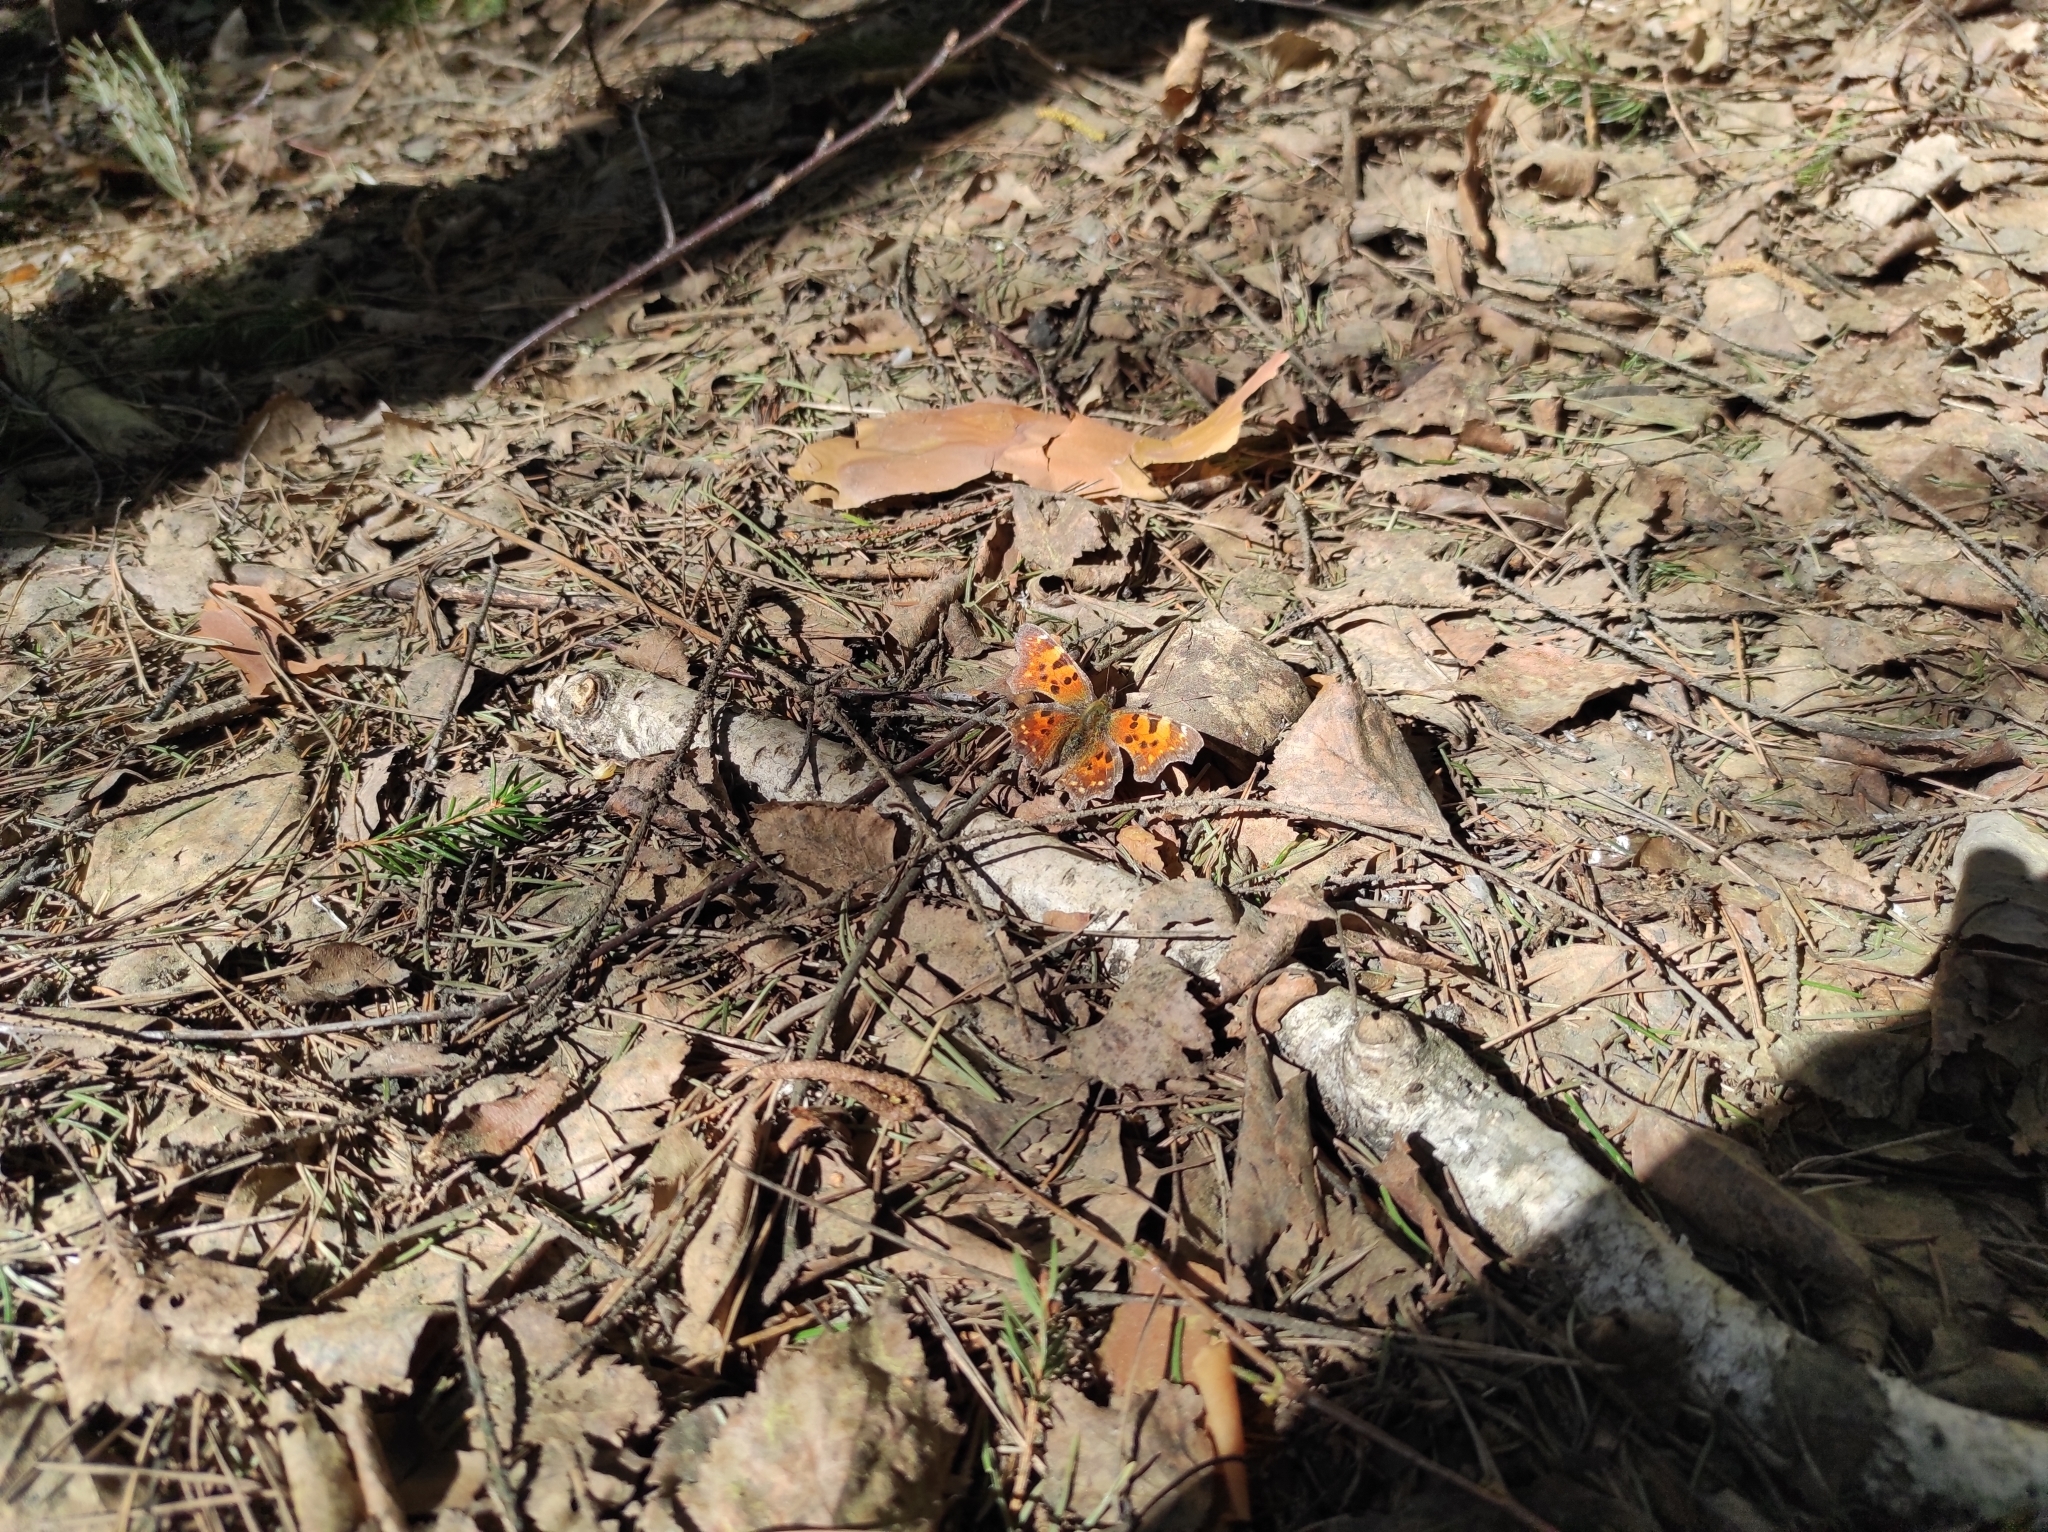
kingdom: Animalia
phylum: Arthropoda
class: Insecta
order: Lepidoptera
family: Nymphalidae
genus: Polygonia
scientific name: Polygonia c-album
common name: Comma
